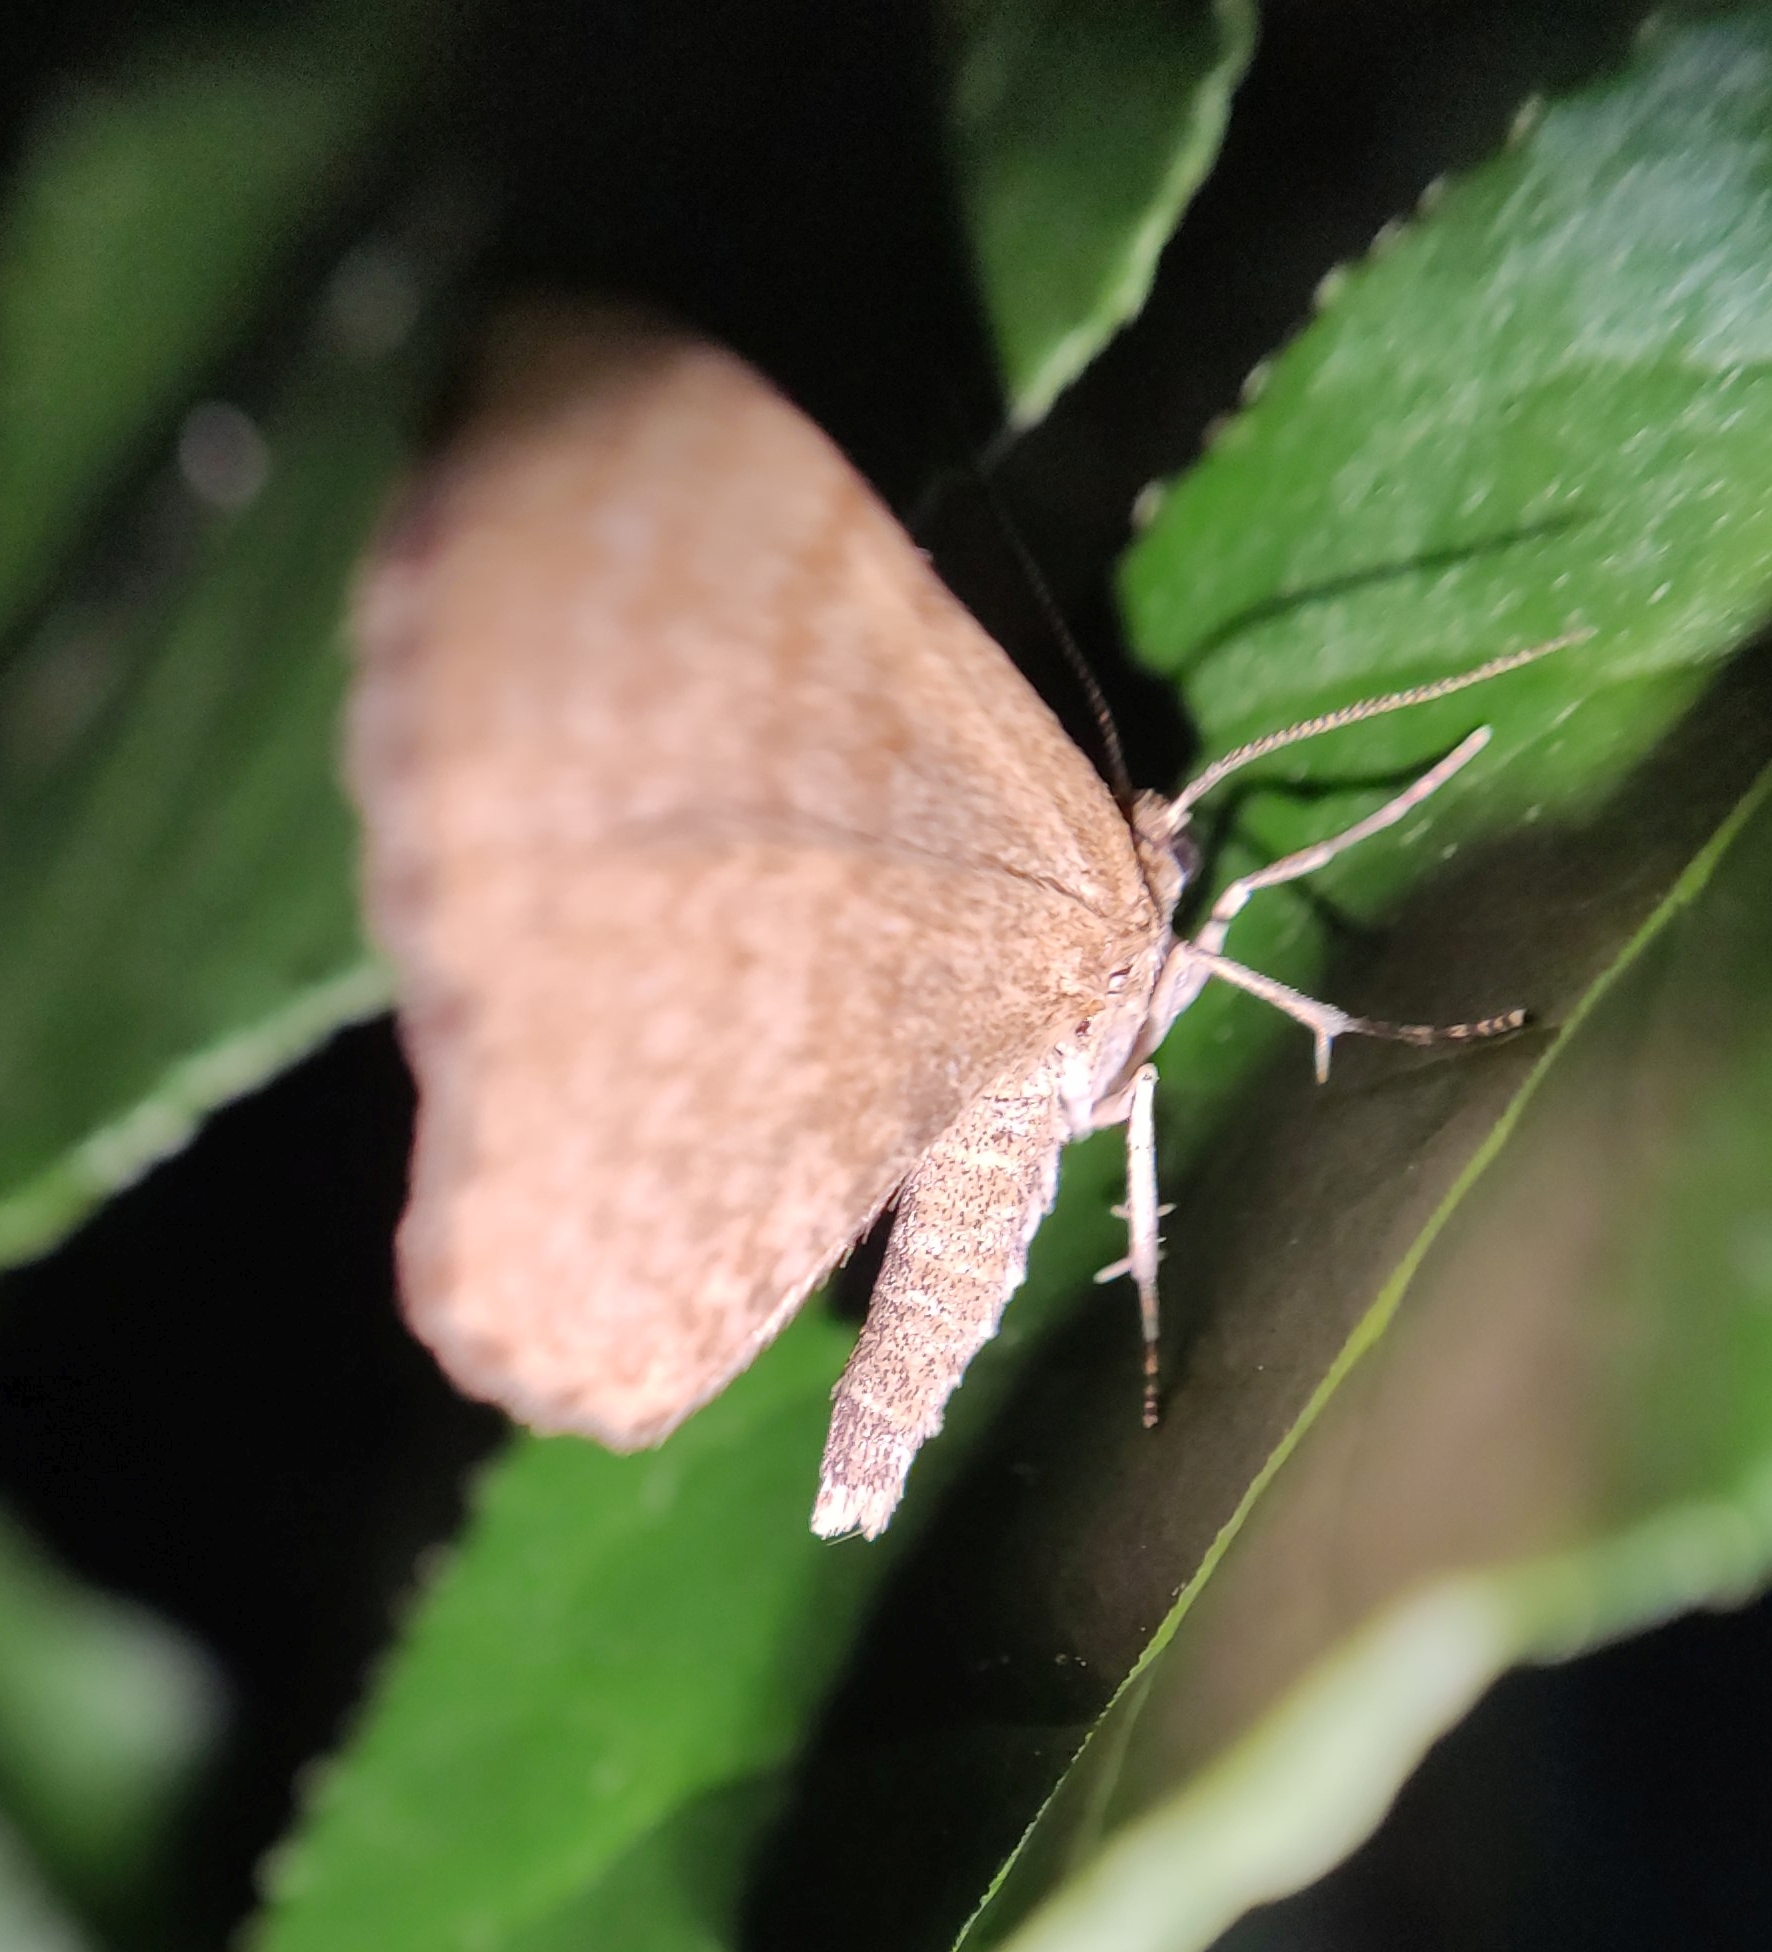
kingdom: Animalia
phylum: Arthropoda
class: Insecta
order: Lepidoptera
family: Geometridae
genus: Euchoeca
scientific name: Euchoeca nebulata
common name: Dingy shell
